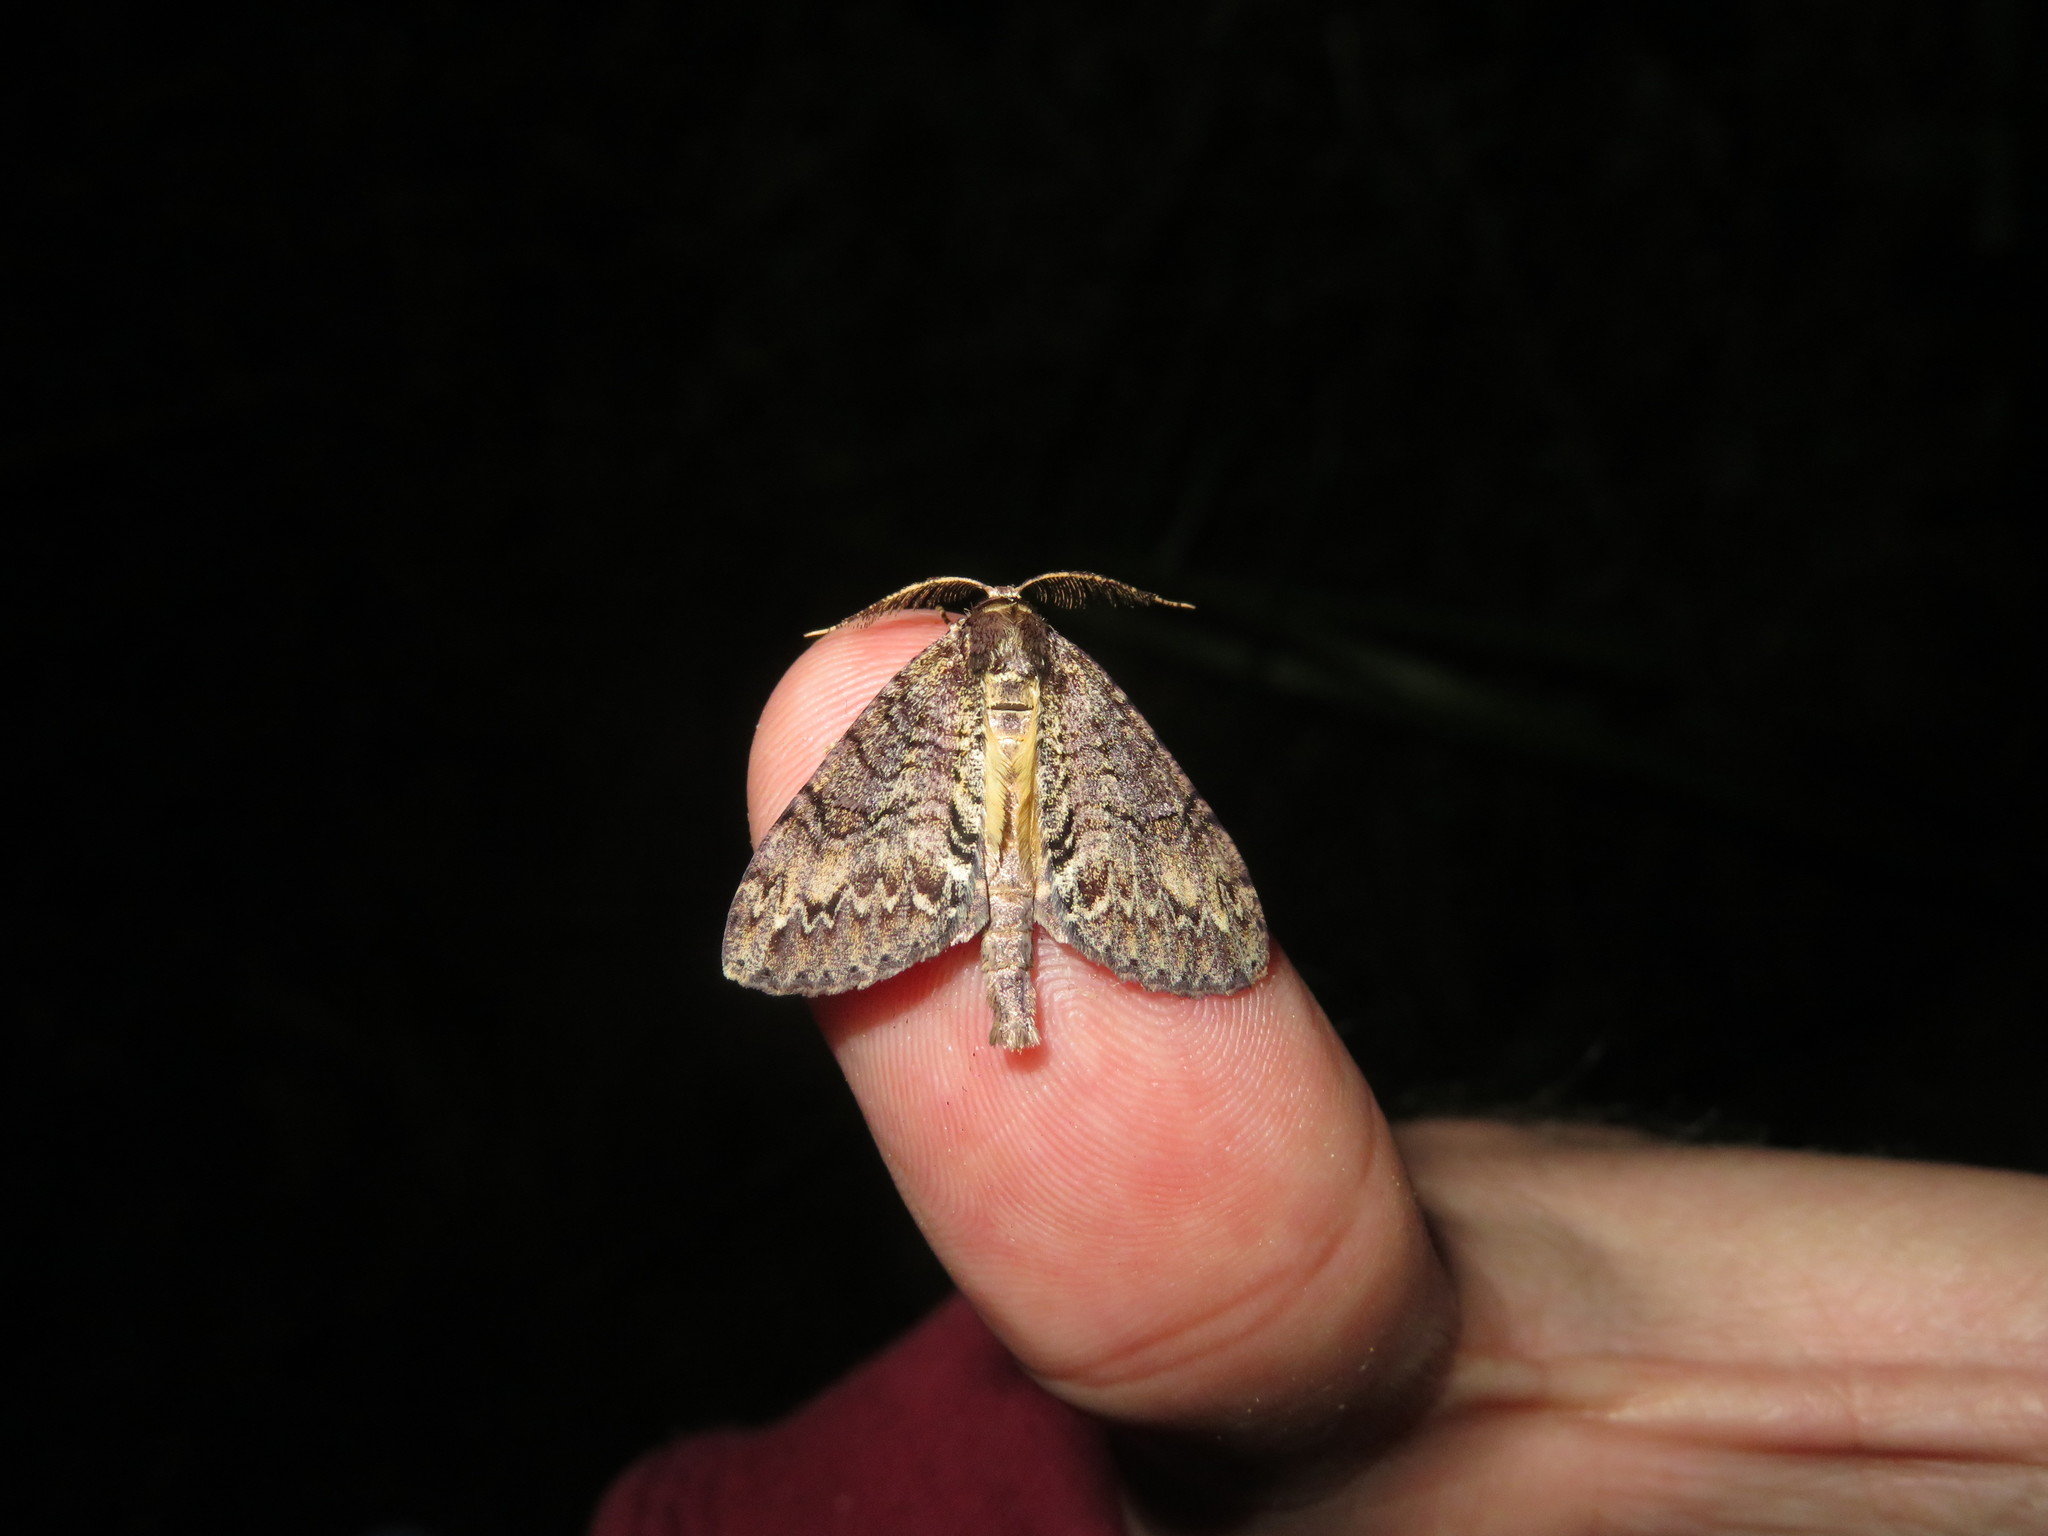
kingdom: Animalia
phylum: Arthropoda
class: Insecta
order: Lepidoptera
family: Geometridae
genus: Pseudocoremia
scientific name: Pseudocoremia suavis
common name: Common forest looper
